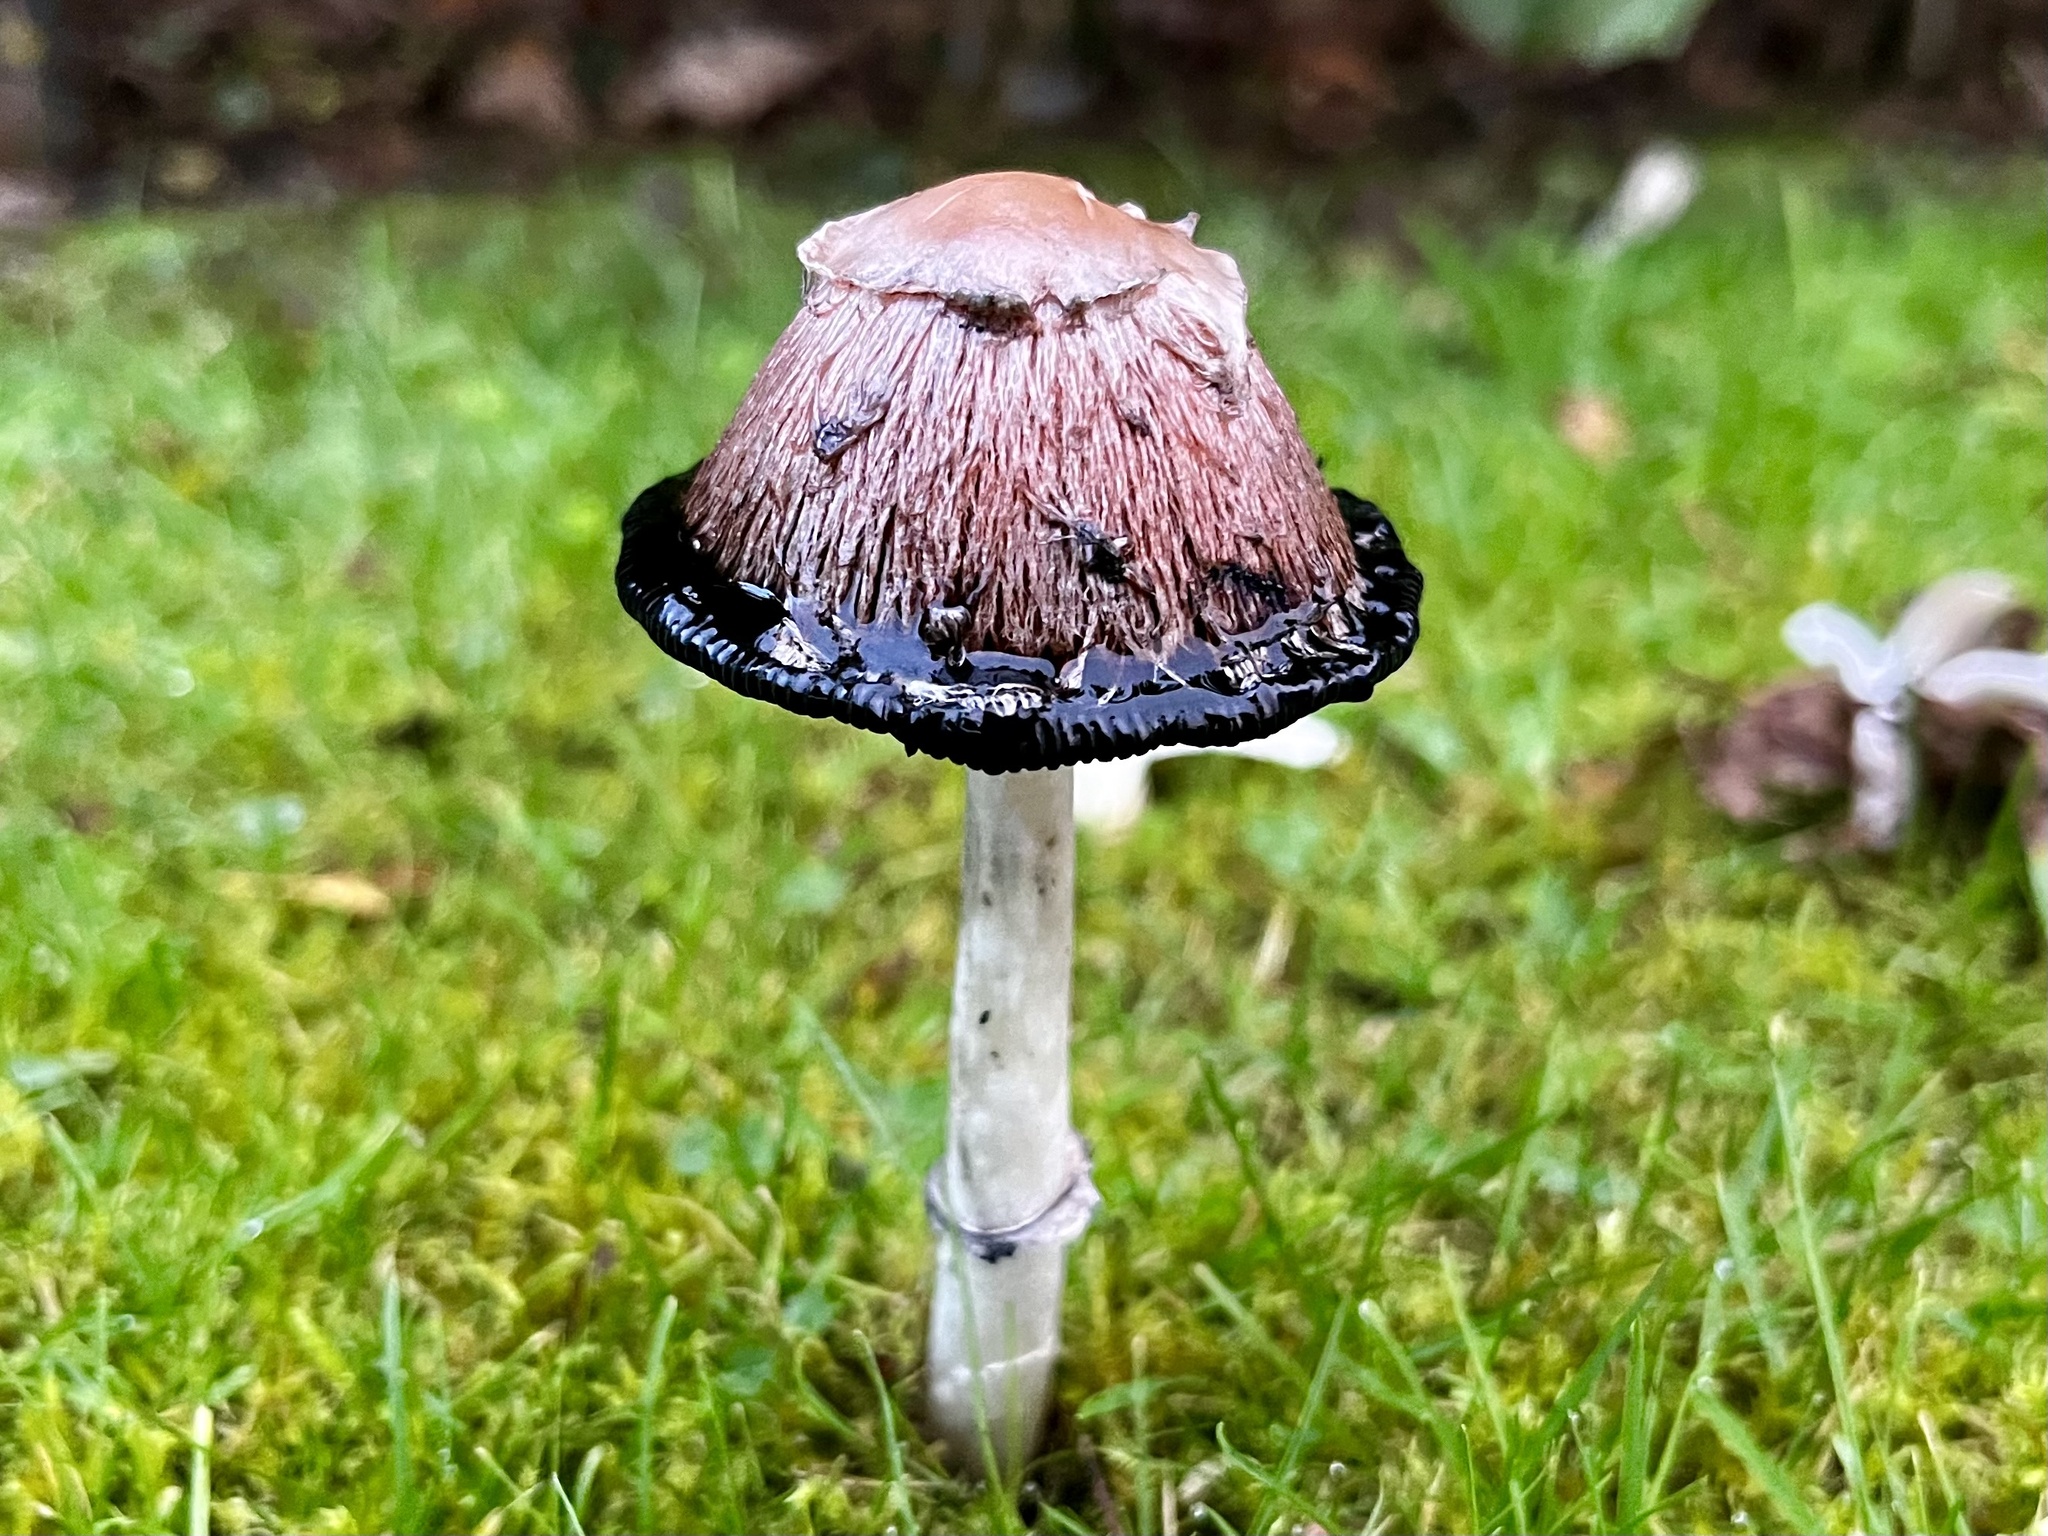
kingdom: Fungi
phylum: Basidiomycota
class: Agaricomycetes
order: Agaricales
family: Agaricaceae
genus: Coprinus
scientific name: Coprinus comatus
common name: Lawyer's wig
